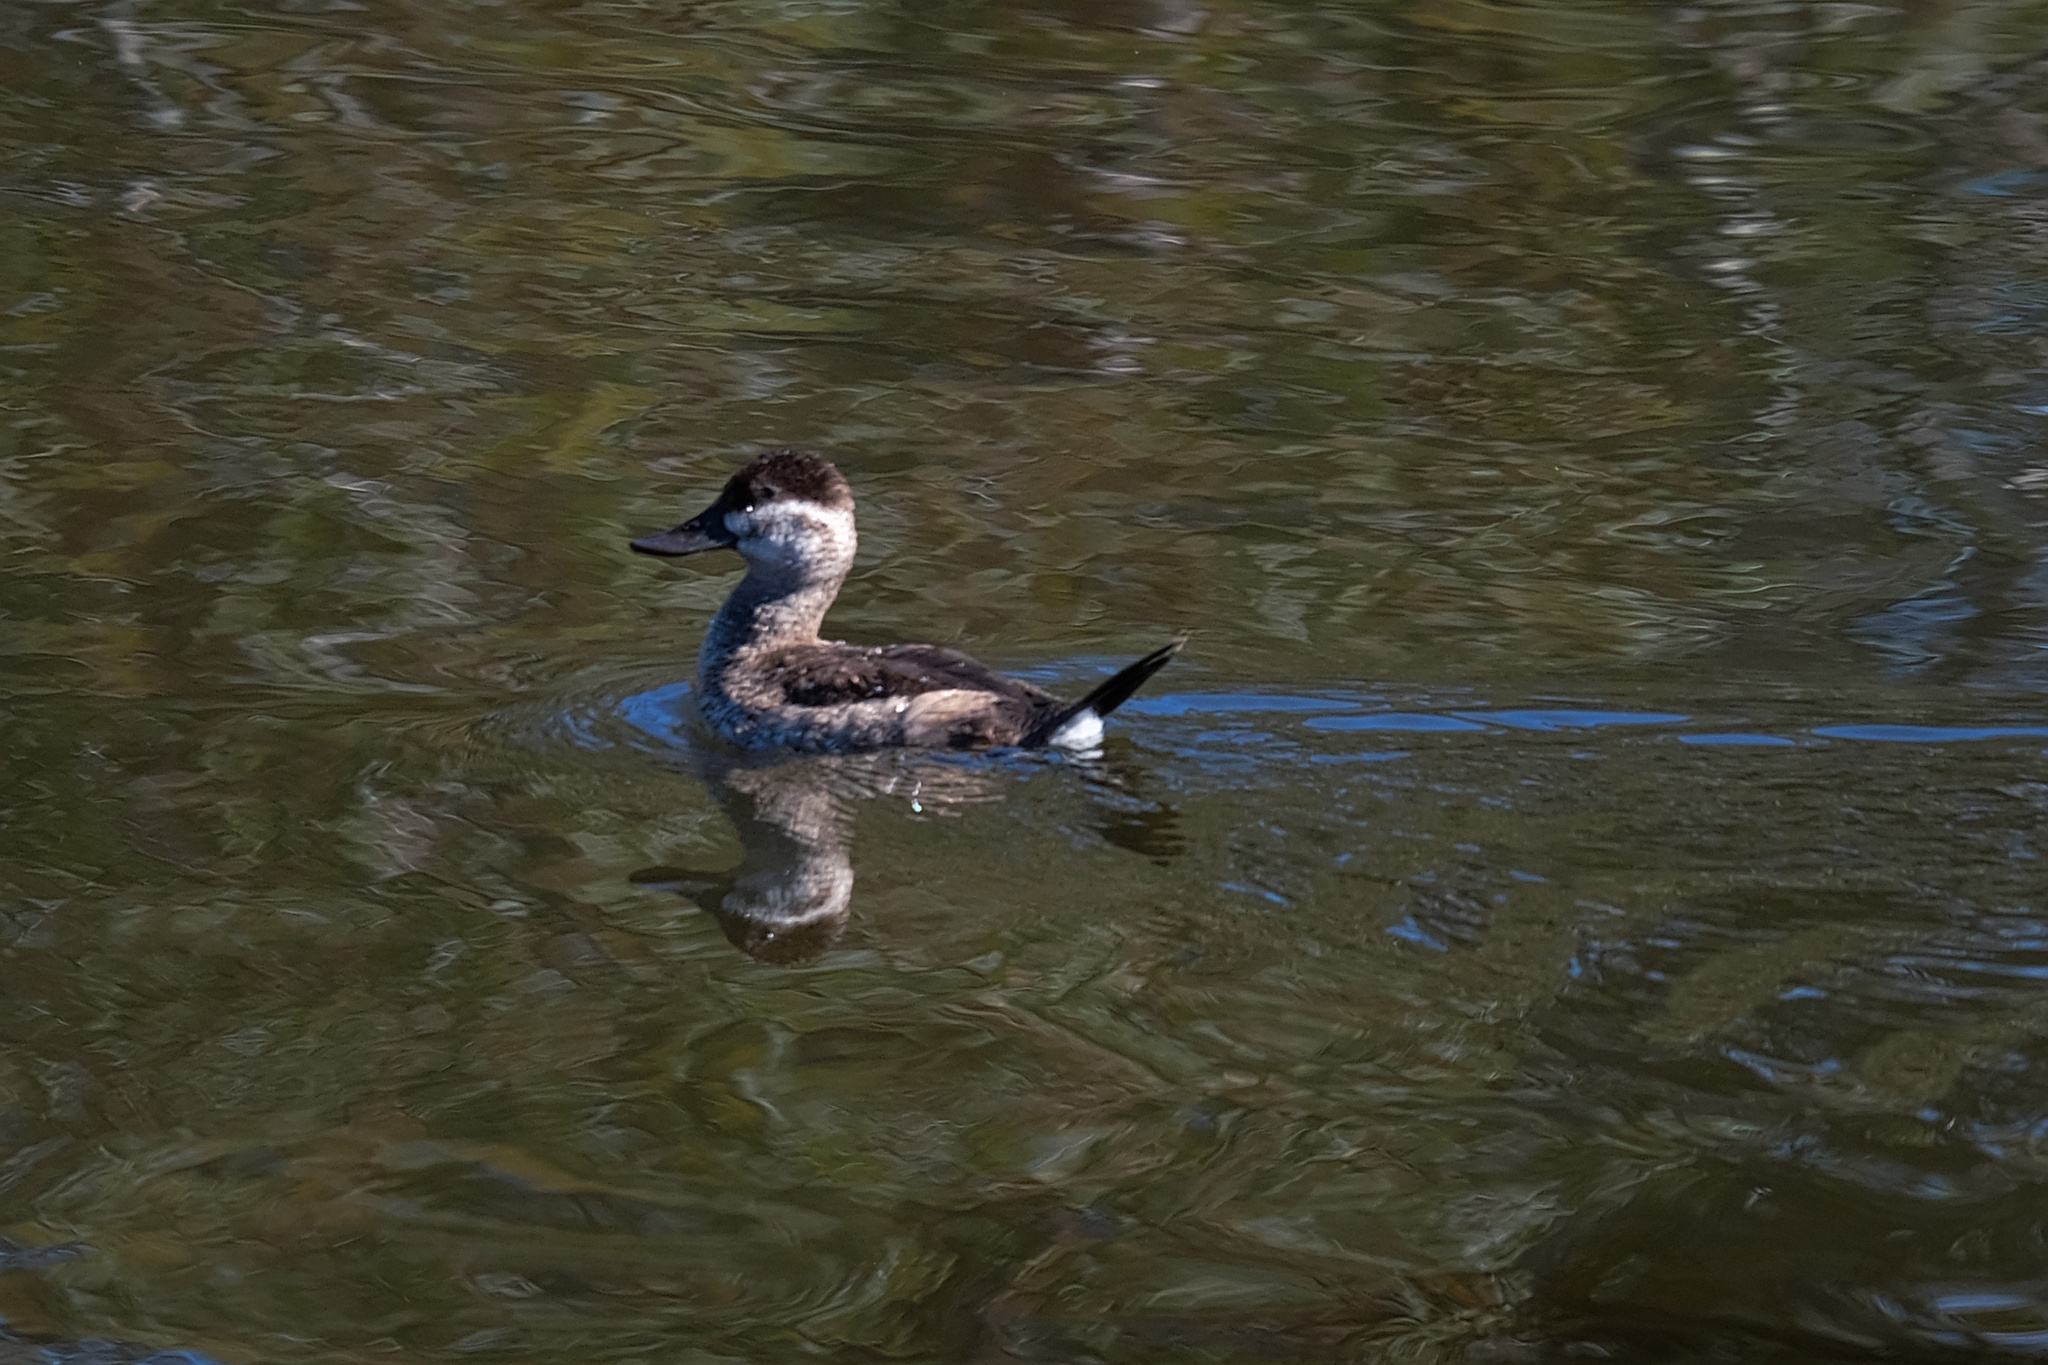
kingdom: Animalia
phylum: Chordata
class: Aves
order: Anseriformes
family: Anatidae
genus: Oxyura
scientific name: Oxyura jamaicensis
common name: Ruddy duck
